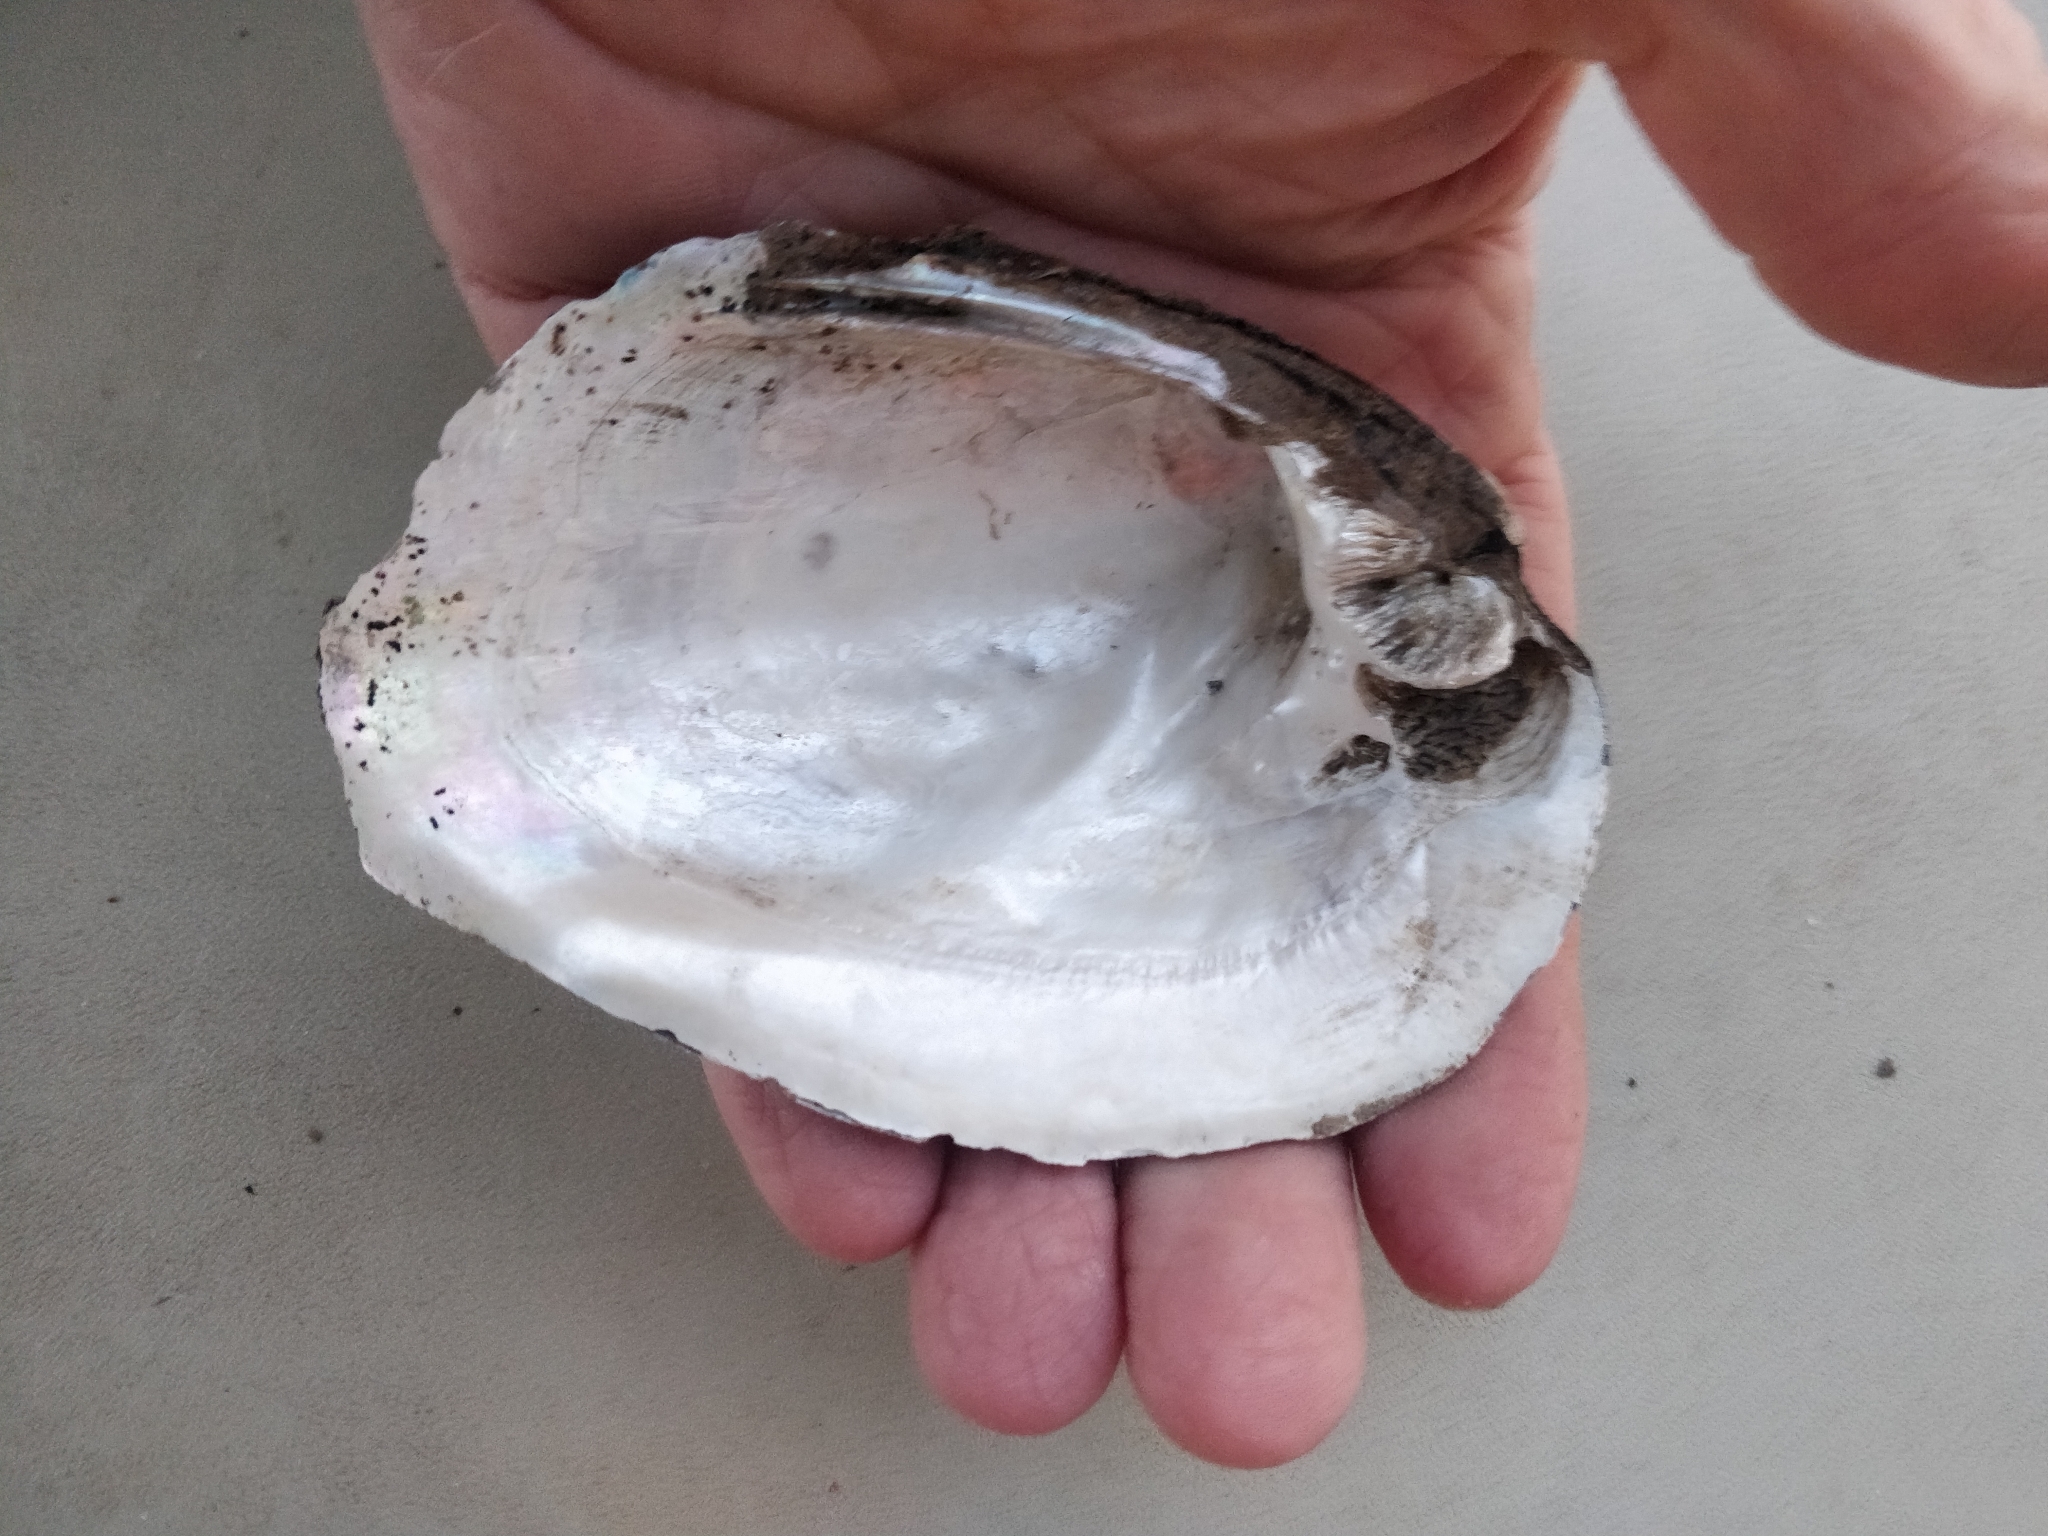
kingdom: Animalia
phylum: Mollusca
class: Bivalvia
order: Unionida
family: Unionidae
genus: Amblema
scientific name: Amblema plicata
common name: Threeridge
